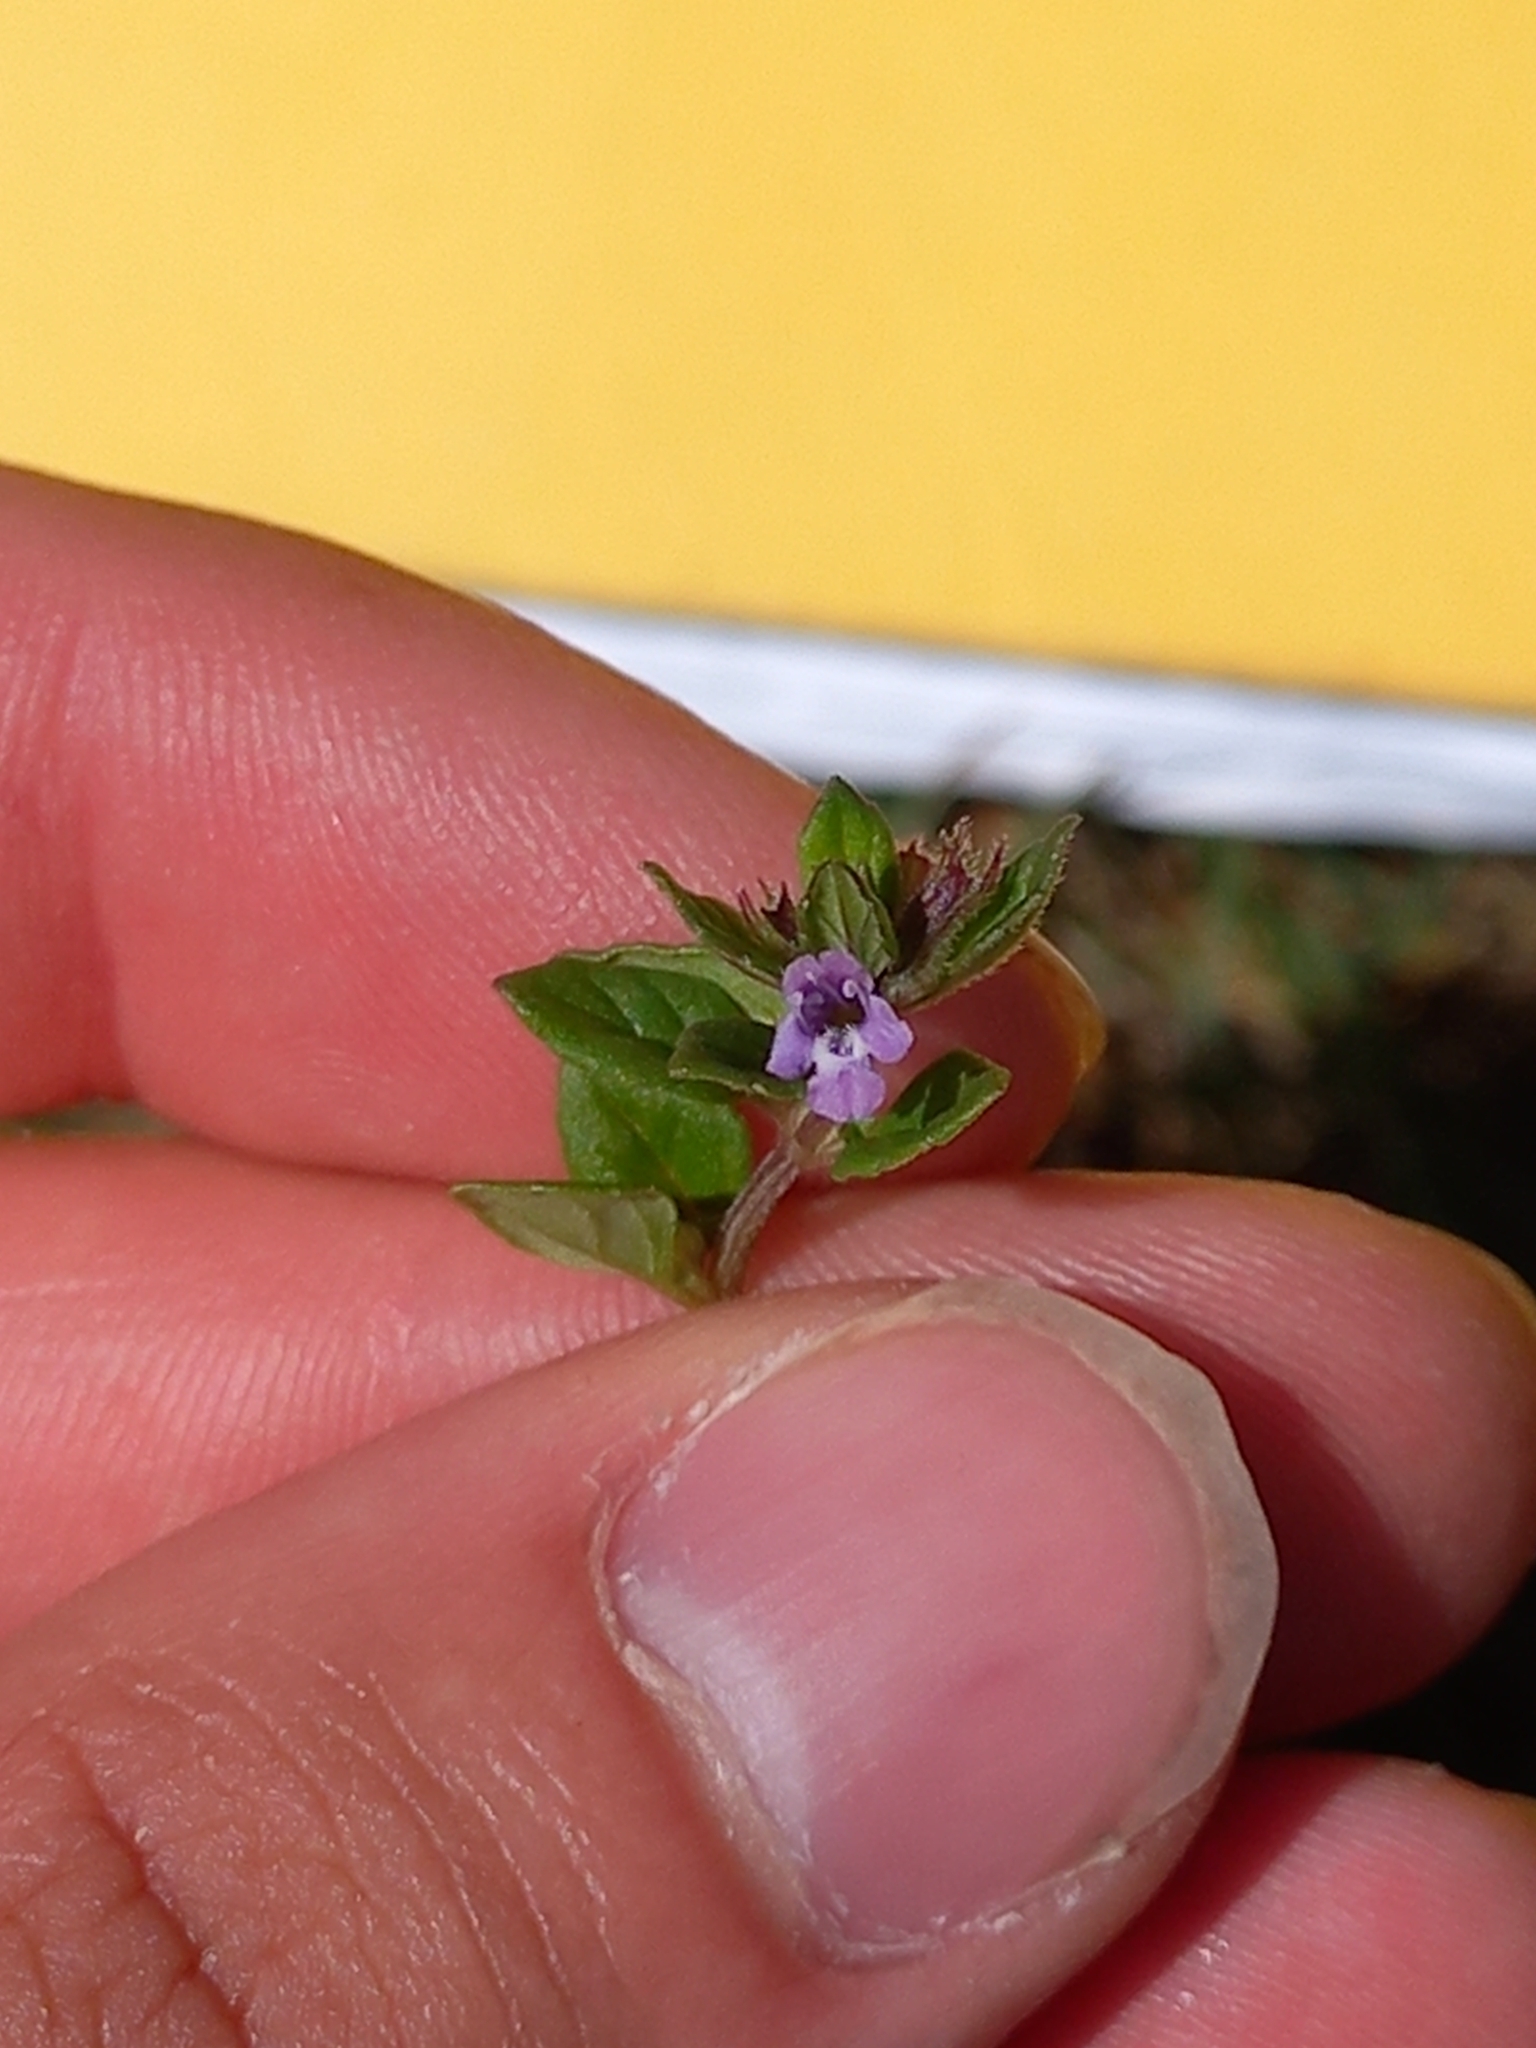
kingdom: Plantae
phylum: Tracheophyta
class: Magnoliopsida
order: Lamiales
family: Lamiaceae
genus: Clinopodium
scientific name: Clinopodium acinos
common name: Basil thyme
